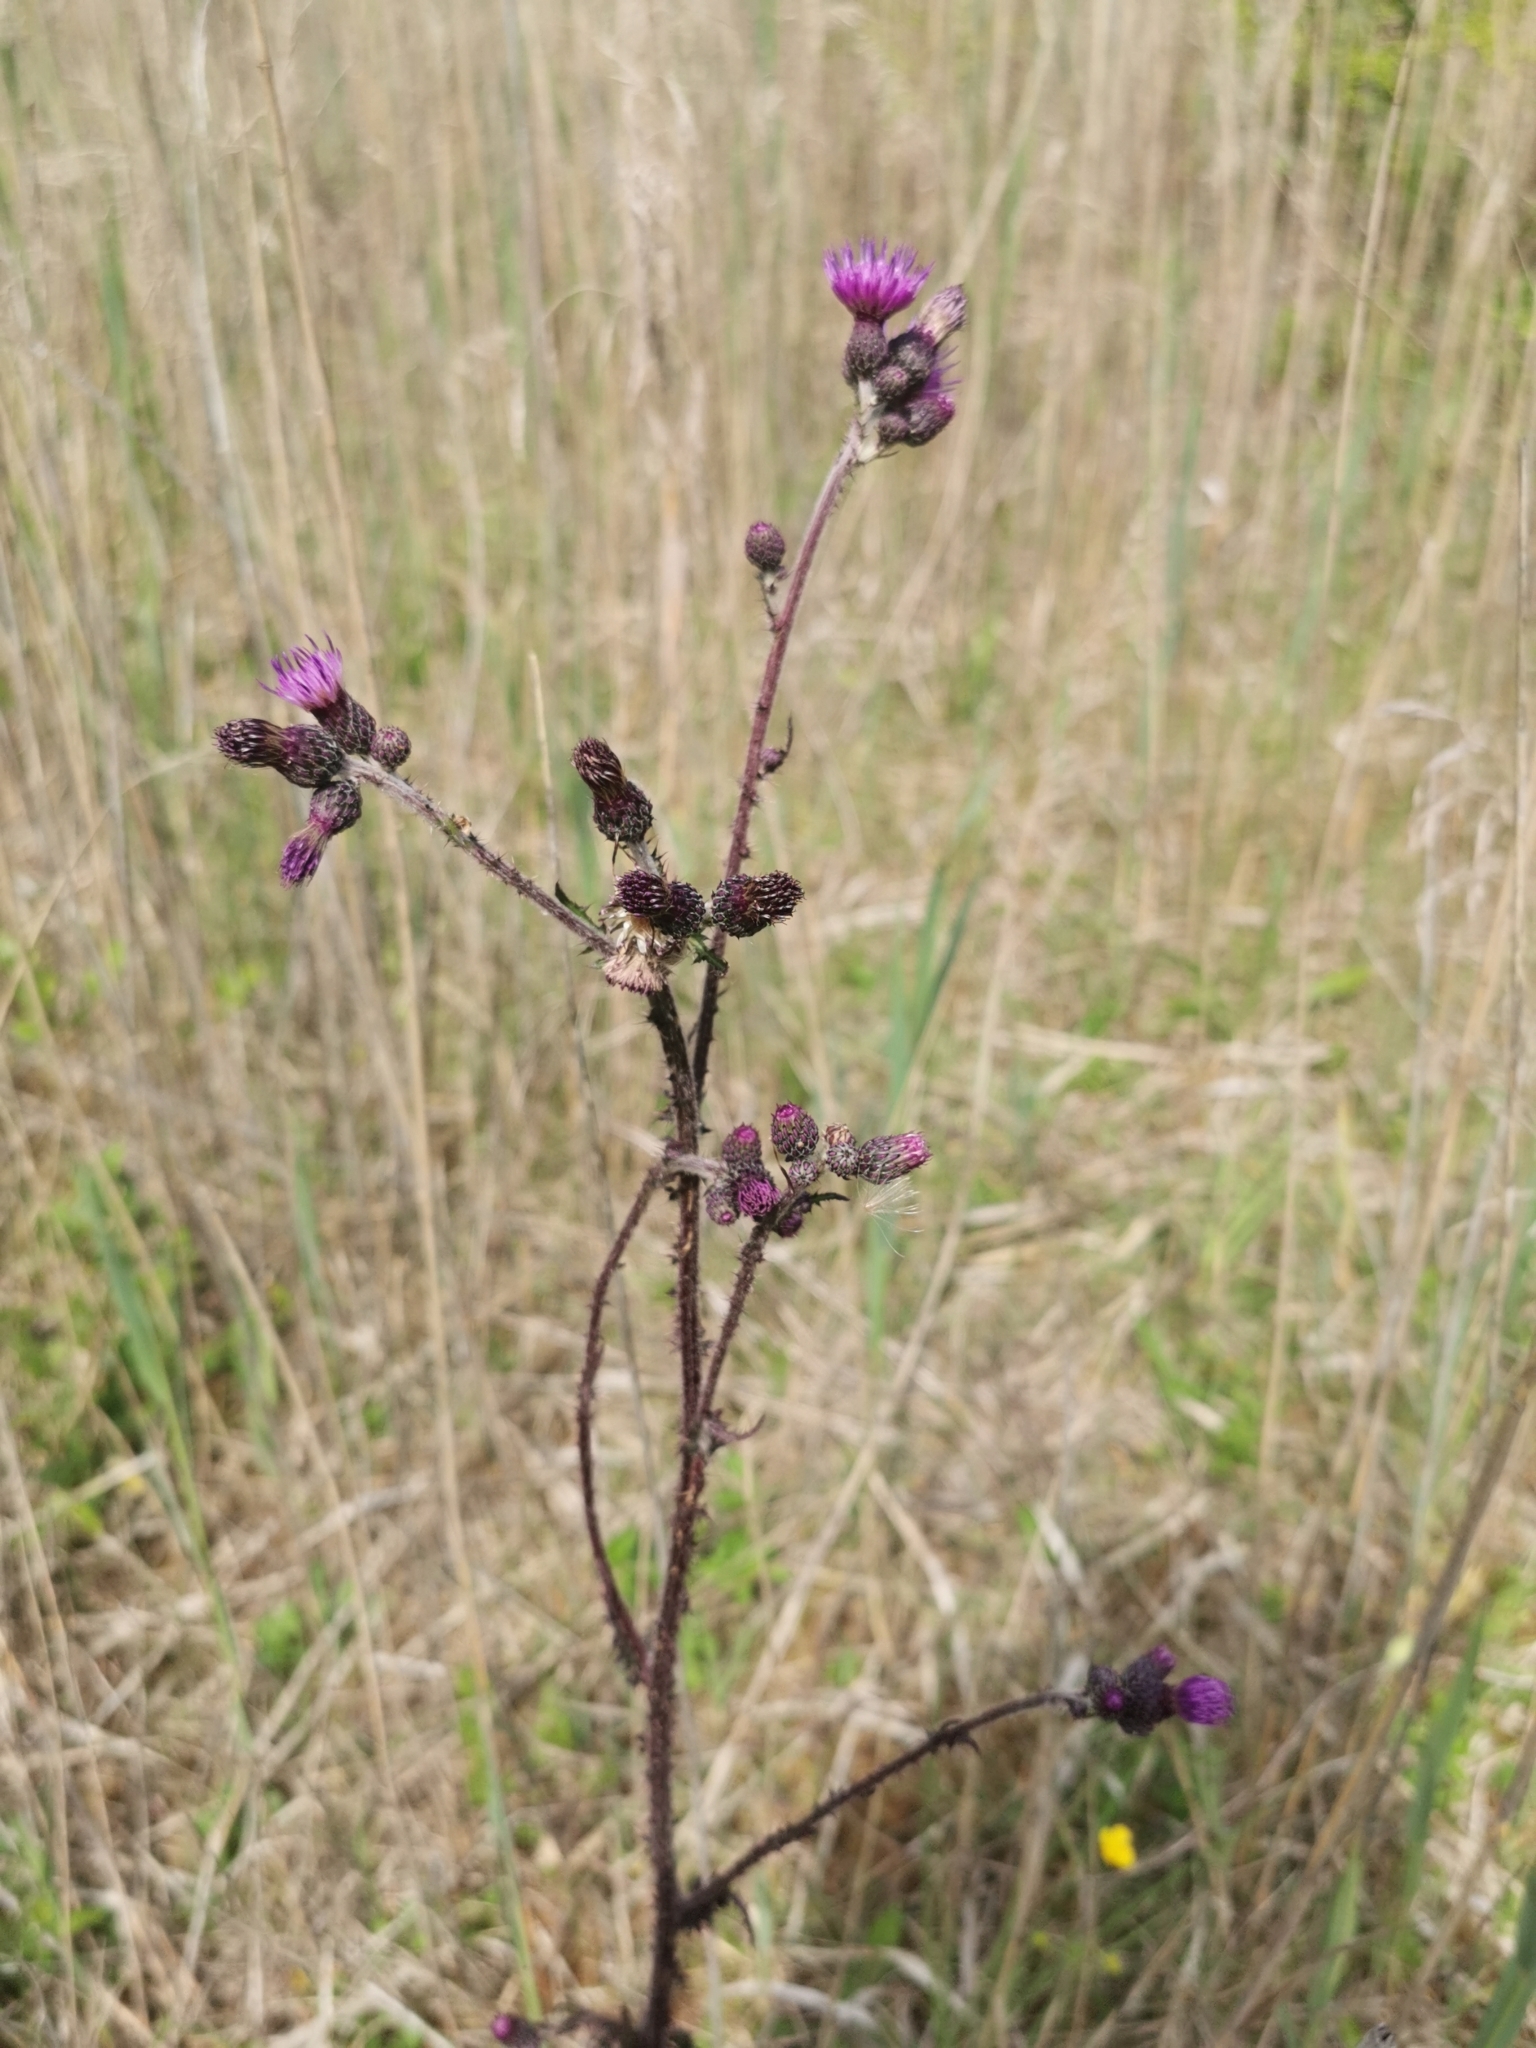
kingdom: Plantae
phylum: Tracheophyta
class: Magnoliopsida
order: Asterales
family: Asteraceae
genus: Cirsium
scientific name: Cirsium palustre
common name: Marsh thistle
